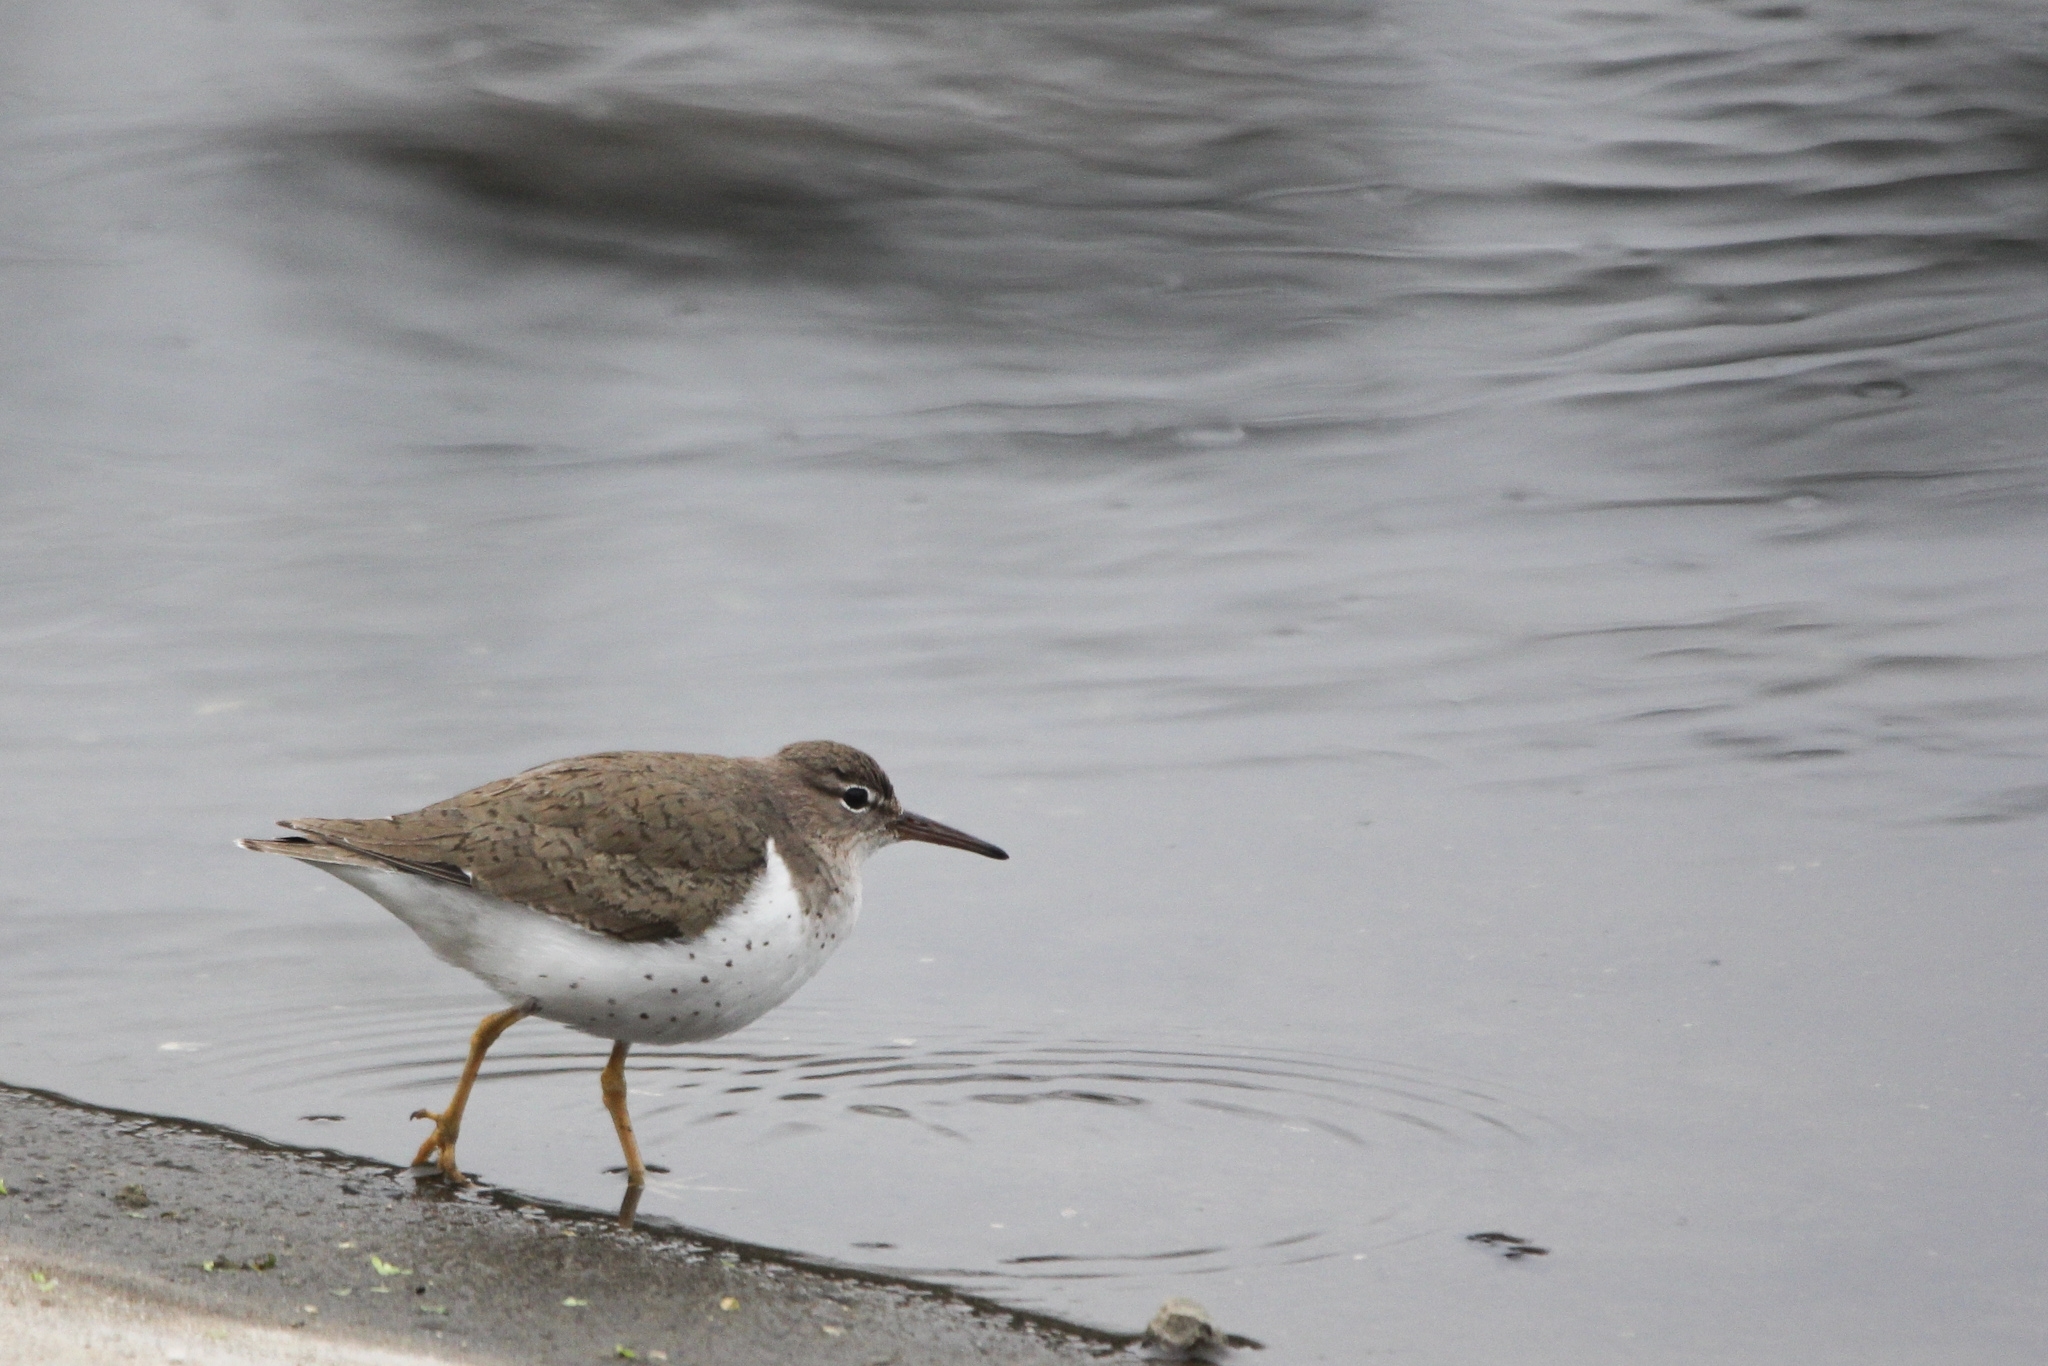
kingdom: Animalia
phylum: Chordata
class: Aves
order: Charadriiformes
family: Scolopacidae
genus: Actitis
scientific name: Actitis macularius
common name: Spotted sandpiper
